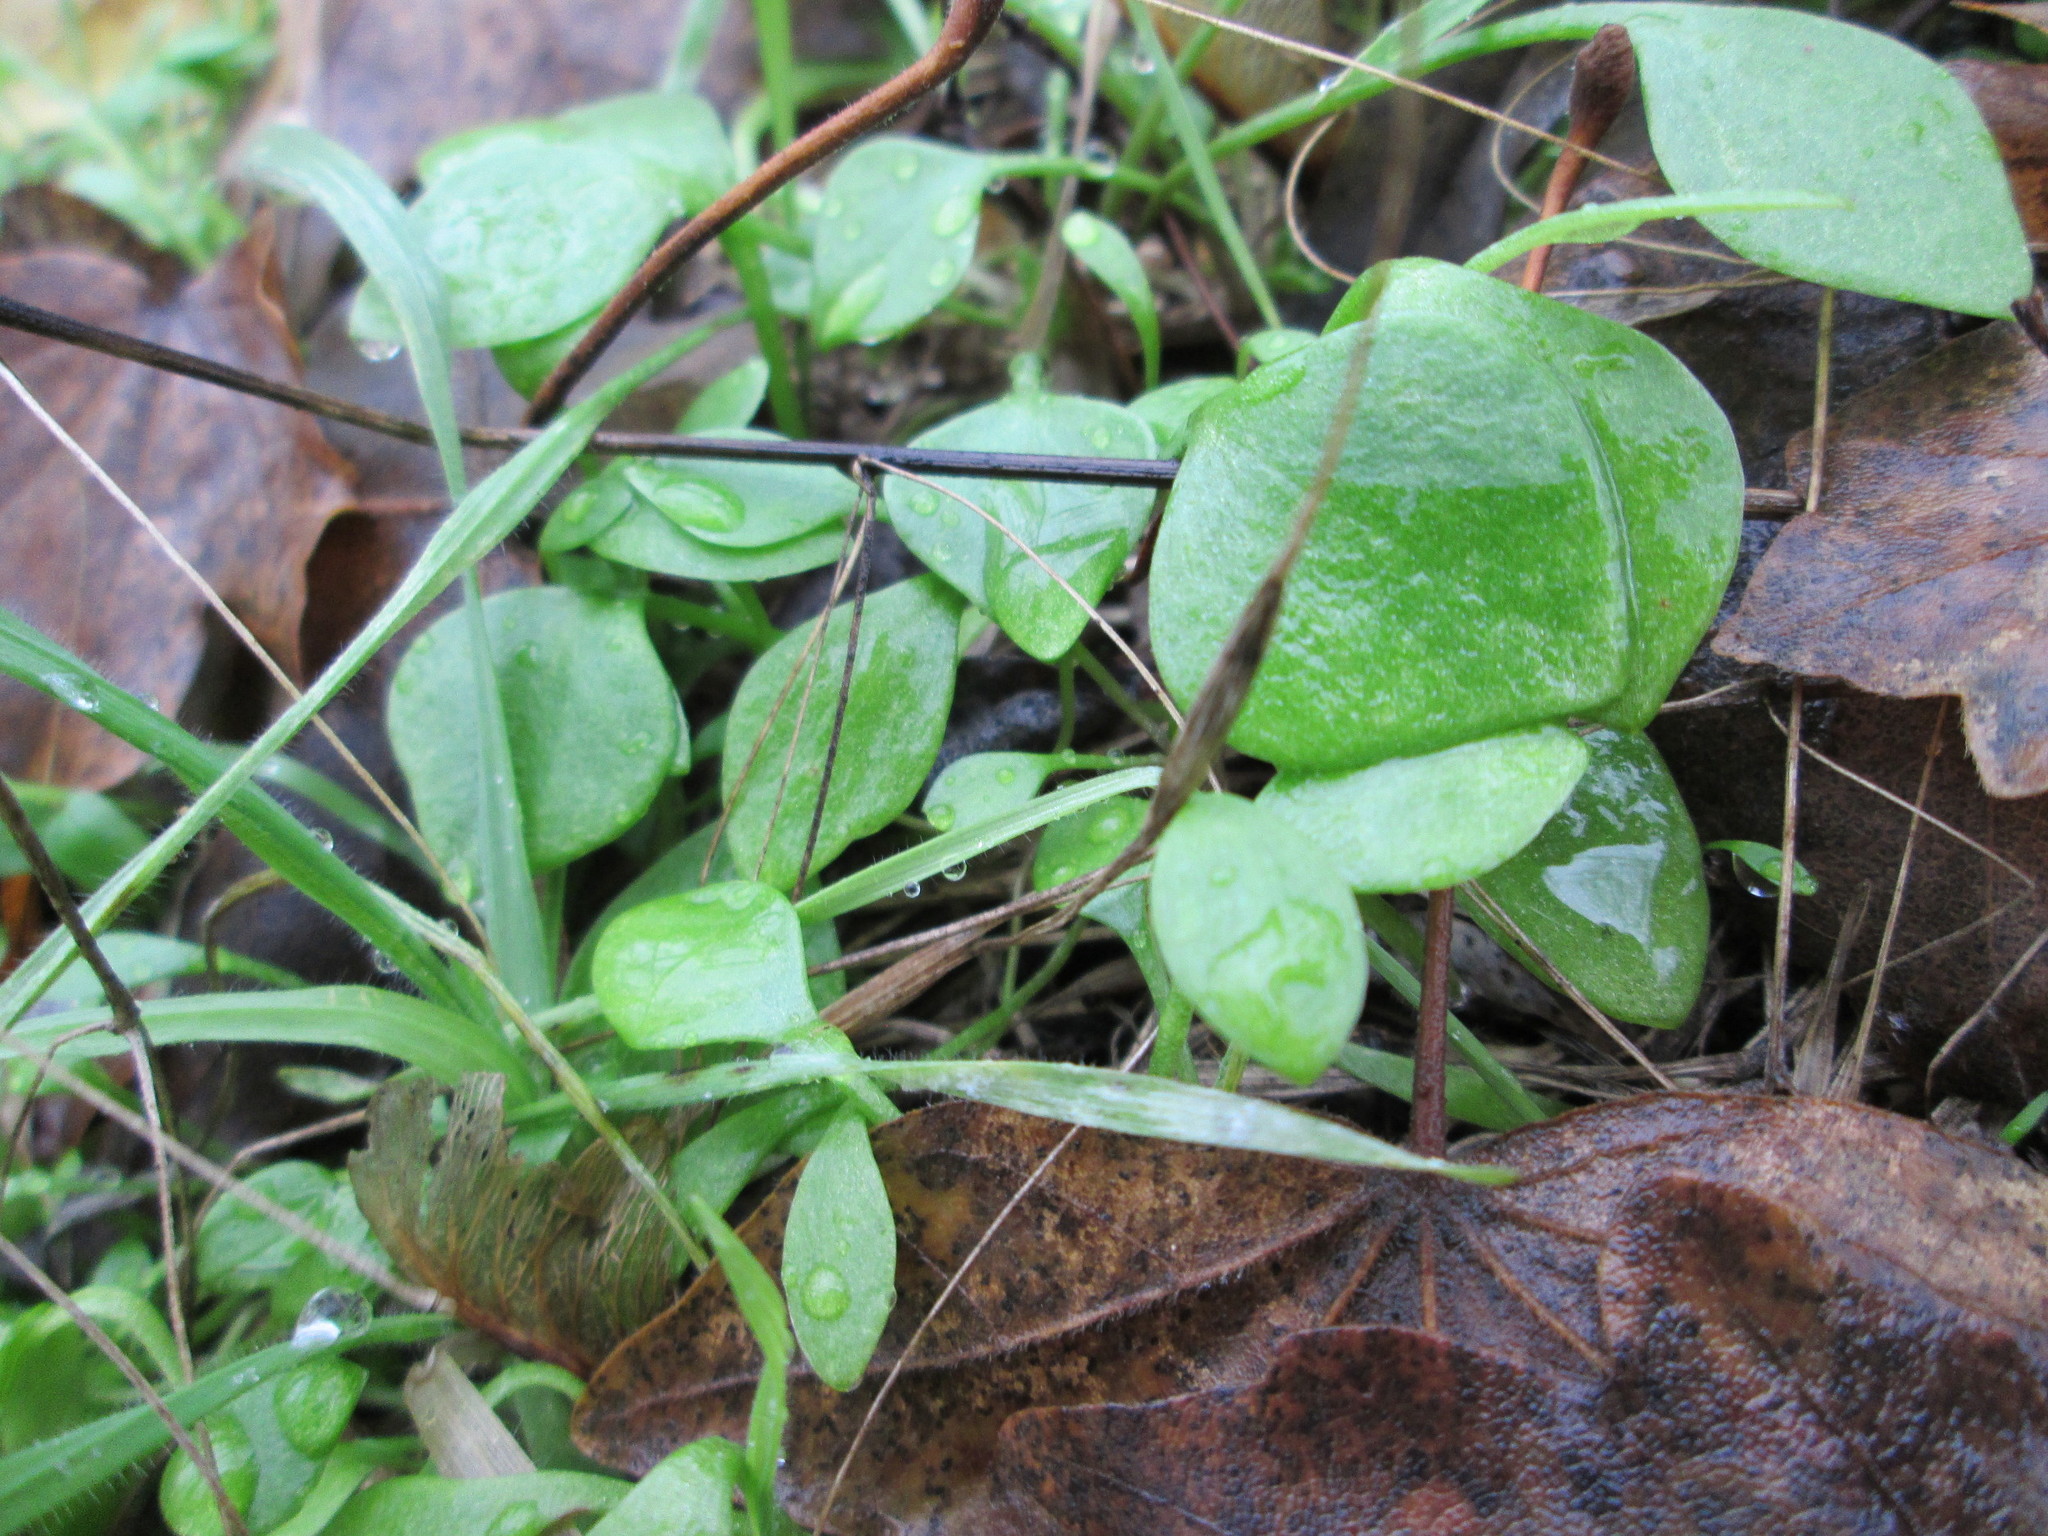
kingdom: Plantae
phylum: Tracheophyta
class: Magnoliopsida
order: Caryophyllales
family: Montiaceae
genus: Claytonia
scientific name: Claytonia perfoliata
